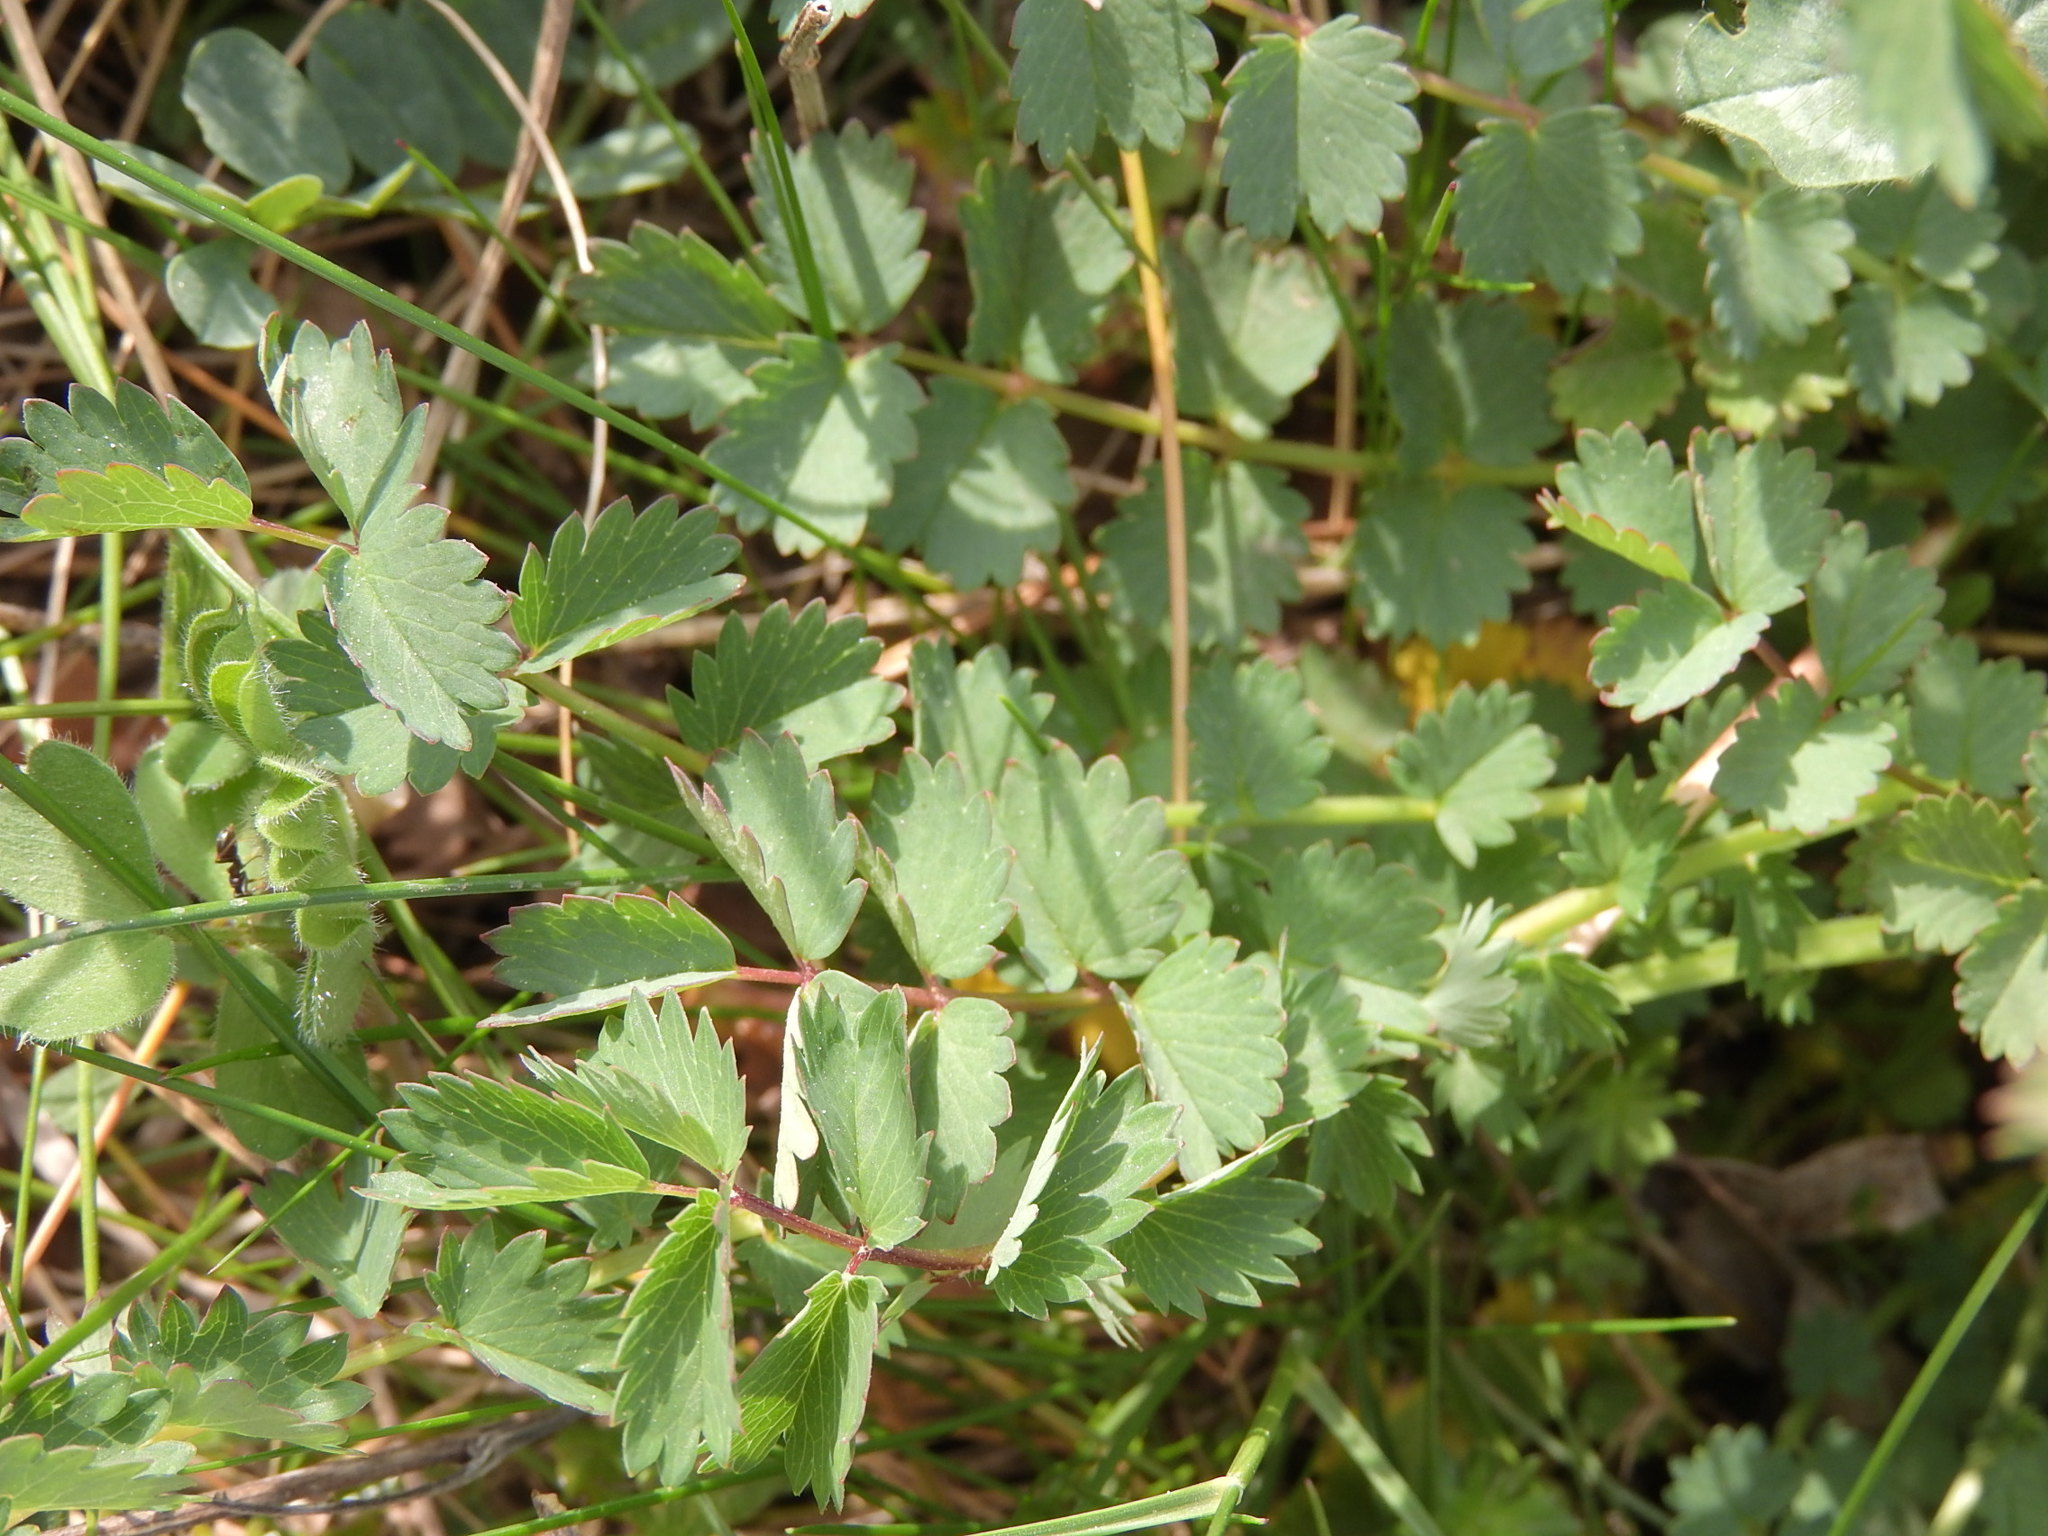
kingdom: Plantae
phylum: Tracheophyta
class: Magnoliopsida
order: Rosales
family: Rosaceae
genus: Poterium
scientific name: Poterium sanguisorba
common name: Salad burnet
